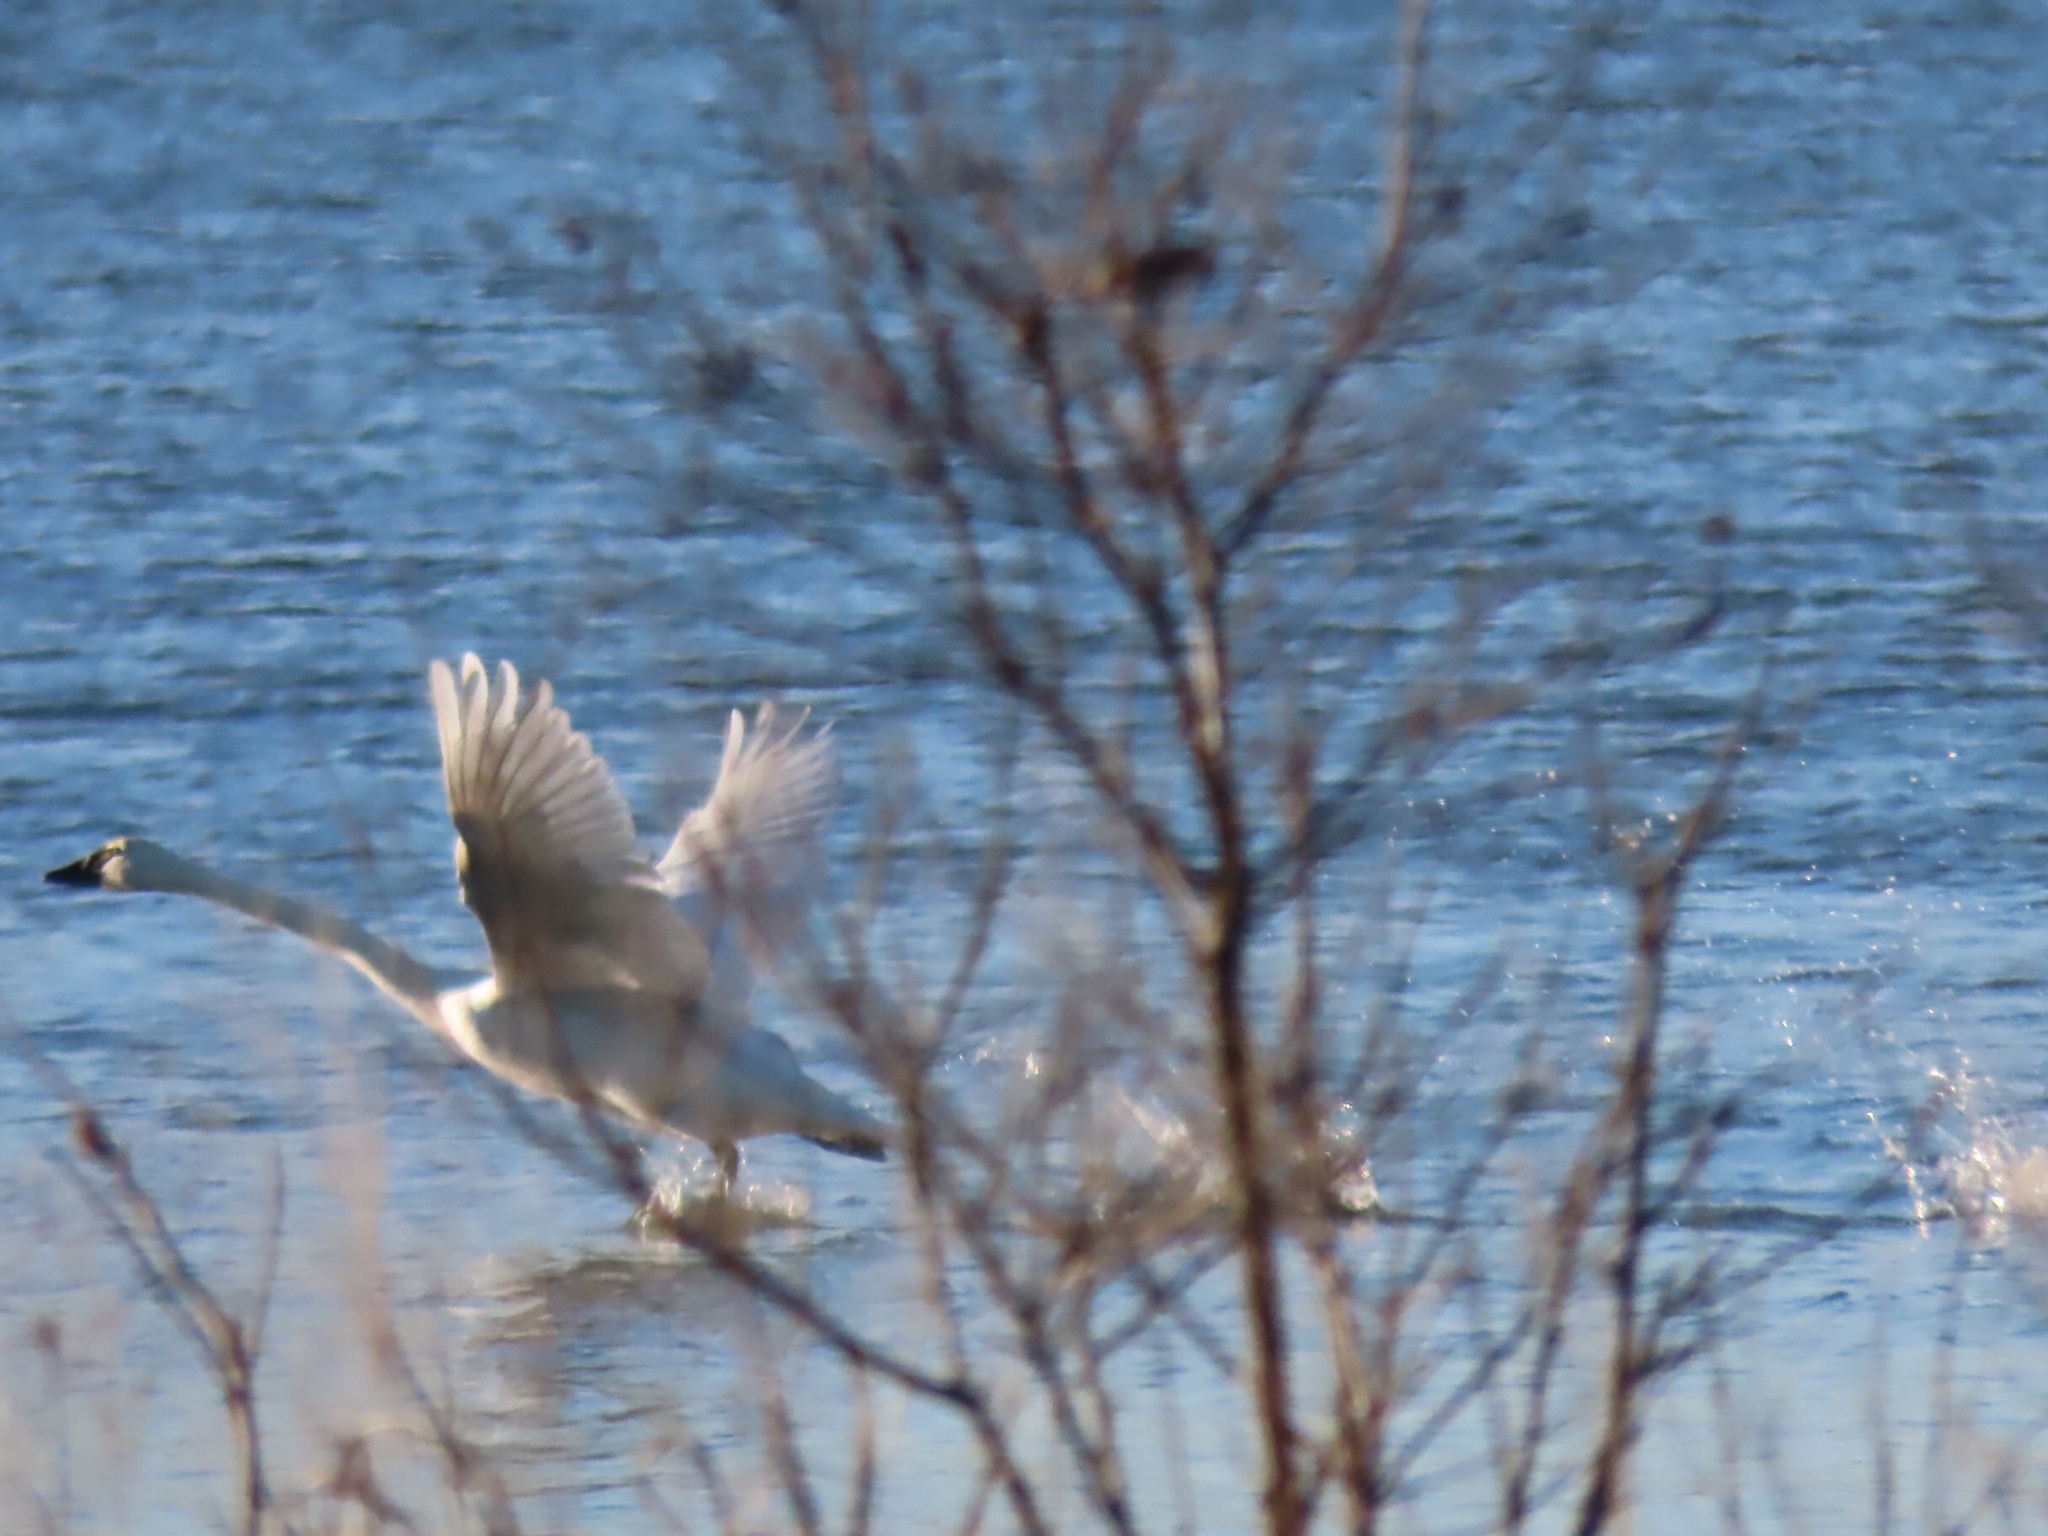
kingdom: Animalia
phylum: Chordata
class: Aves
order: Anseriformes
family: Anatidae
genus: Cygnus
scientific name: Cygnus columbianus
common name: Tundra swan
